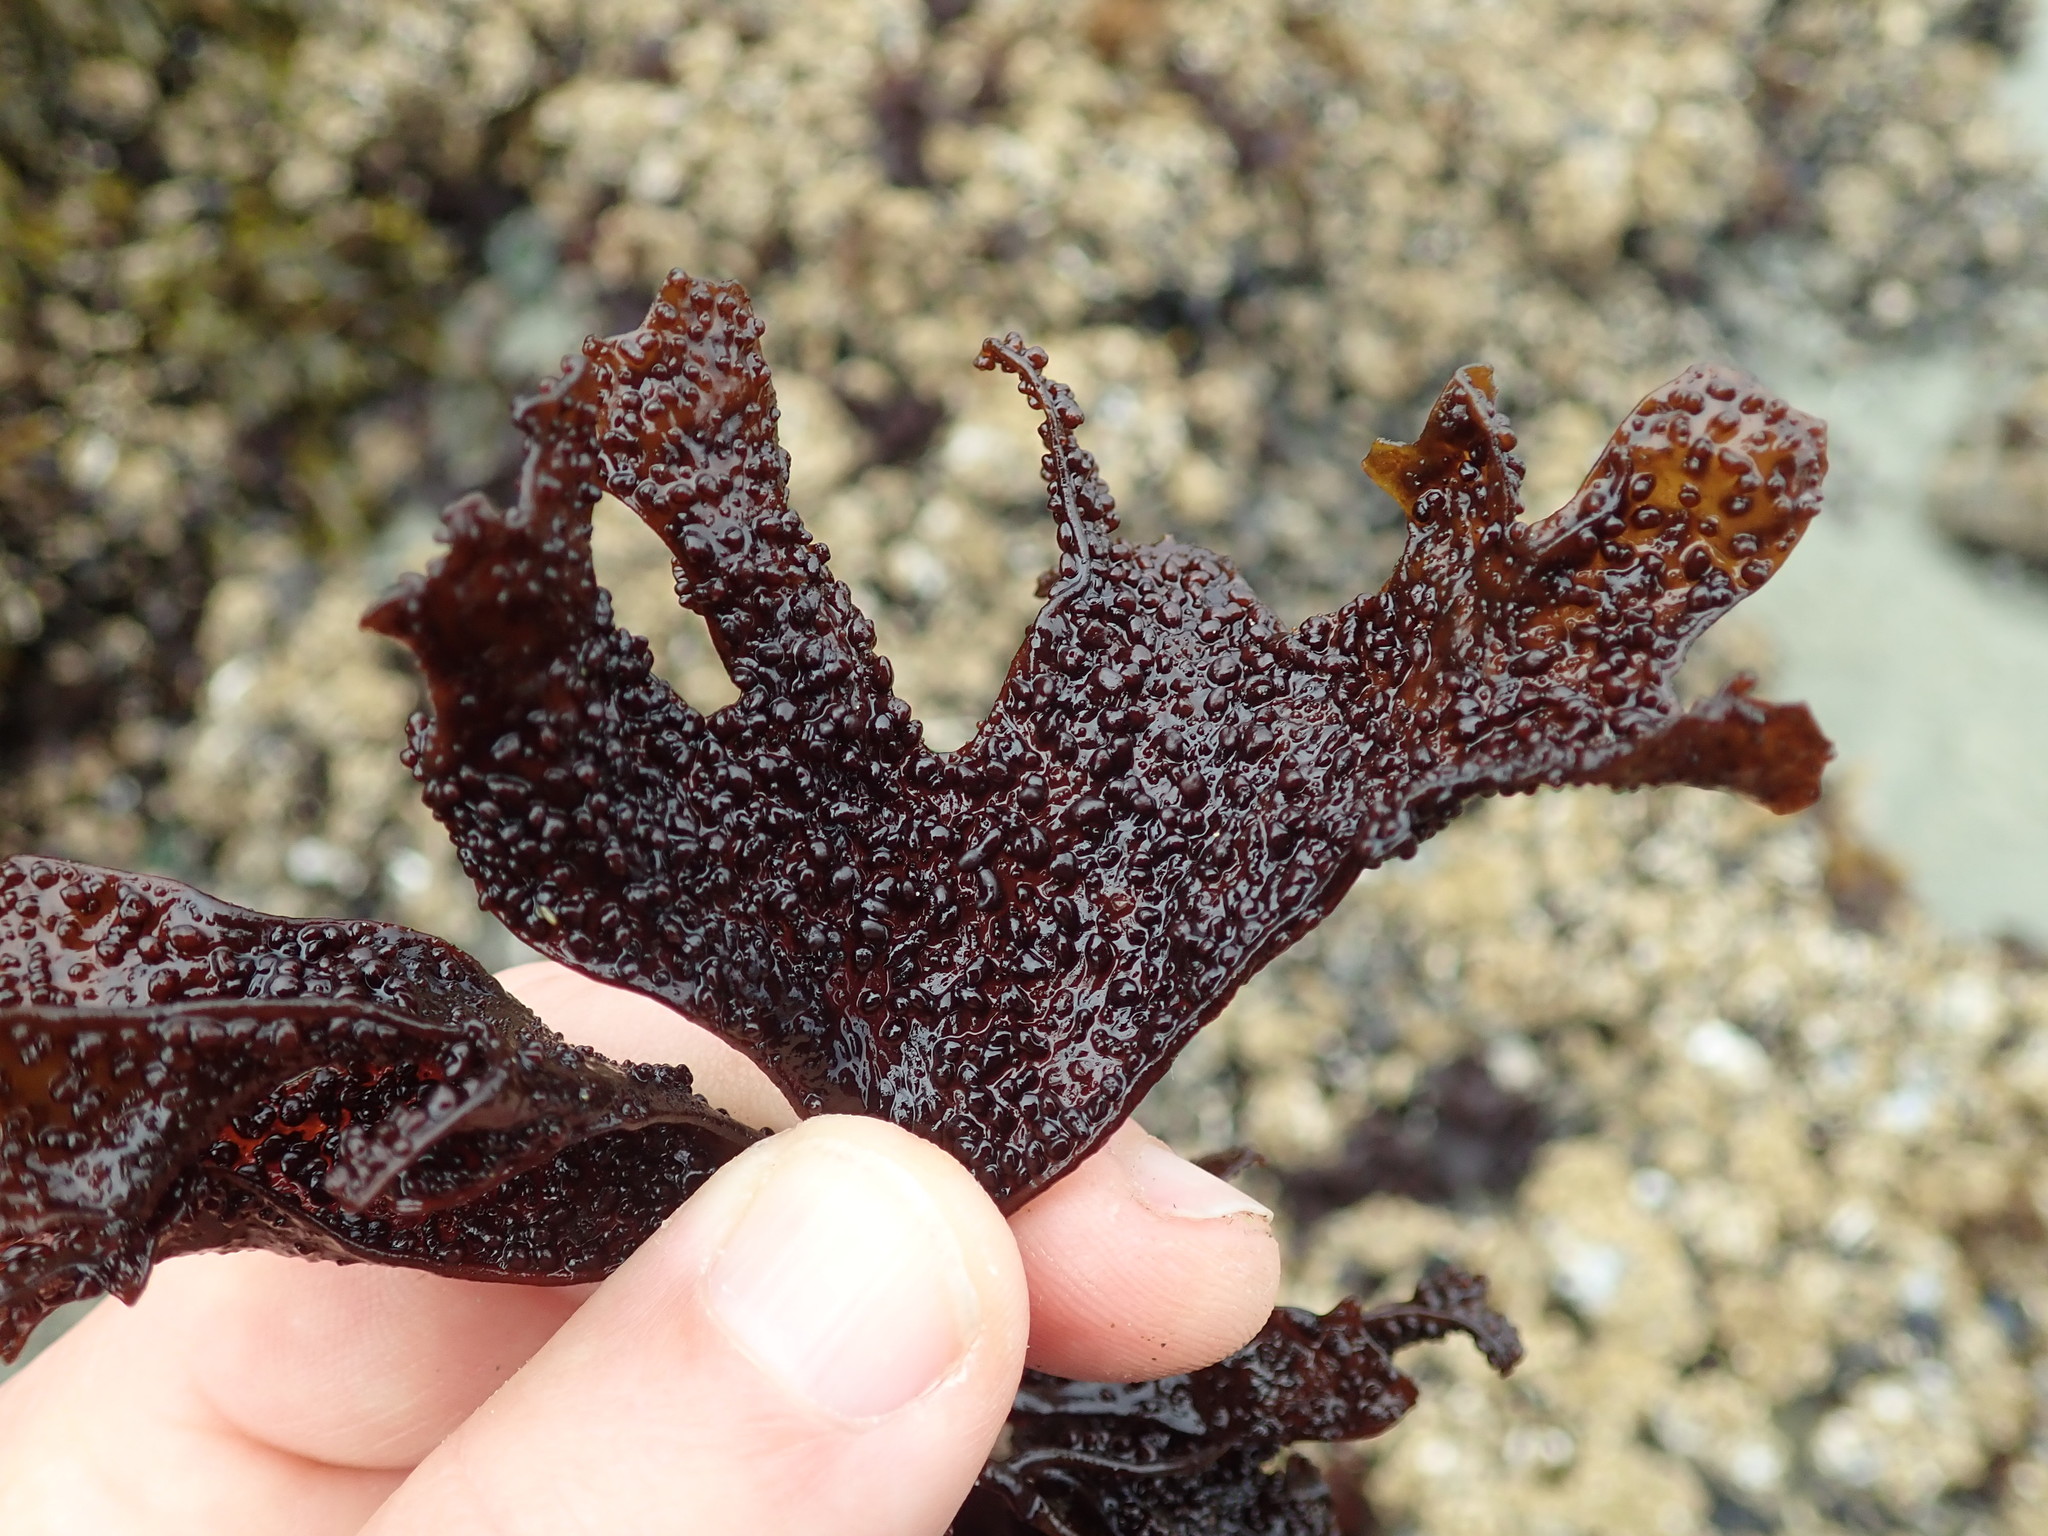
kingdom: Plantae
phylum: Rhodophyta
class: Florideophyceae
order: Gigartinales
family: Phyllophoraceae
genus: Mastocarpus
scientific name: Mastocarpus papillatus
